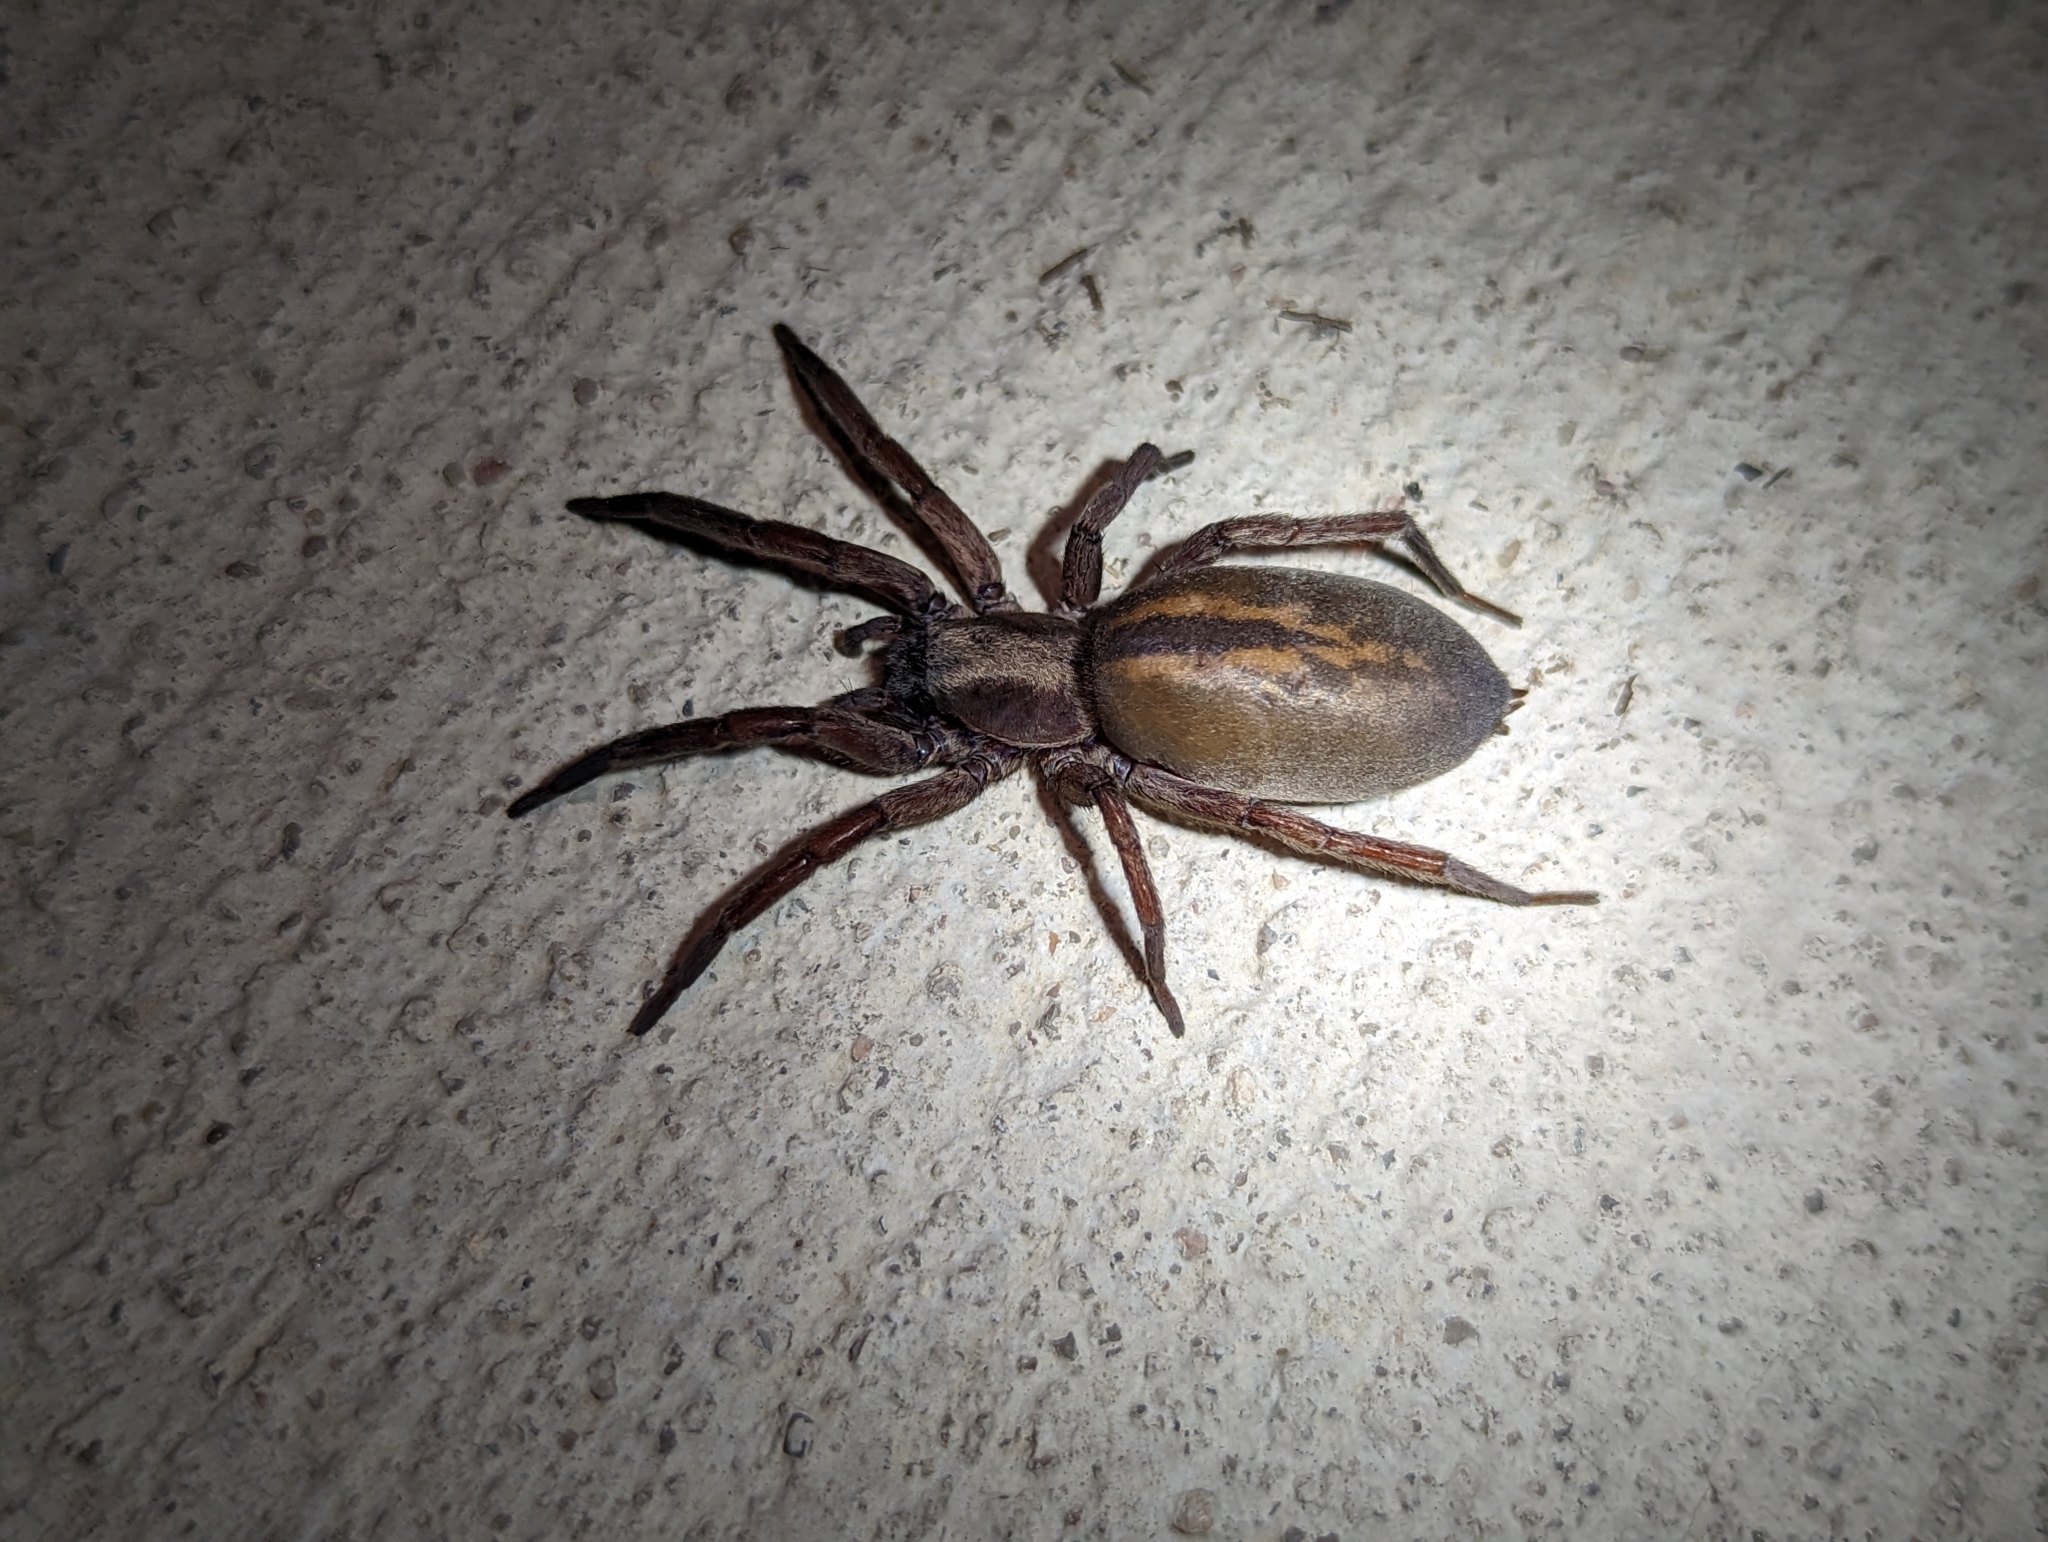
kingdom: Animalia
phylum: Arthropoda
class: Arachnida
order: Araneae
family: Miturgidae
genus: Teminius
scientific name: Teminius affinis
